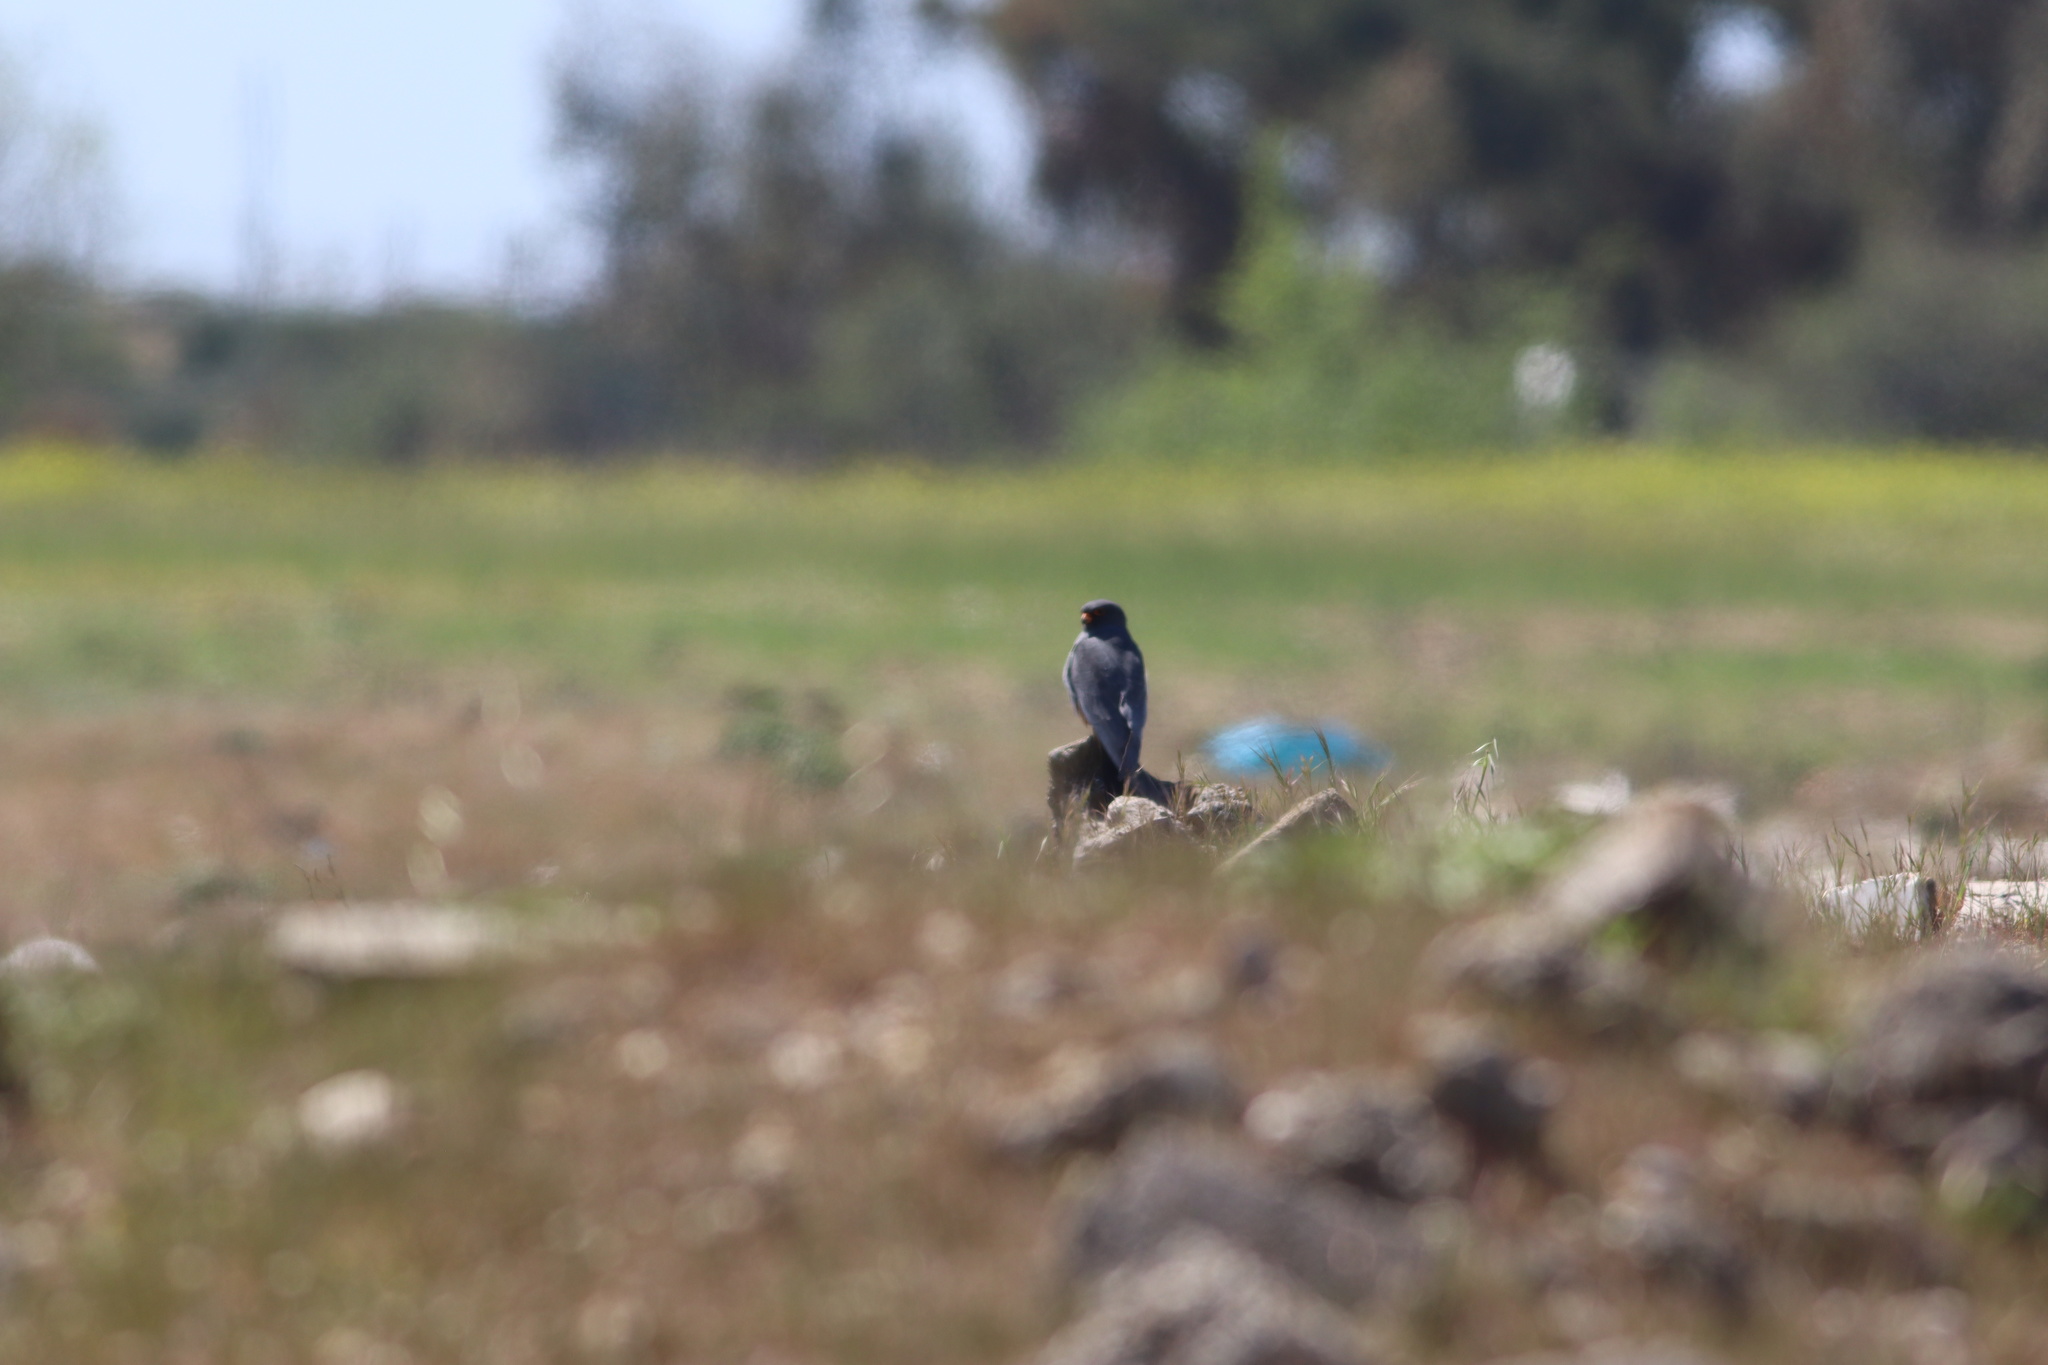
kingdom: Animalia
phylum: Chordata
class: Aves
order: Falconiformes
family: Falconidae
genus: Falco
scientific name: Falco vespertinus
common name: Red-footed falcon
